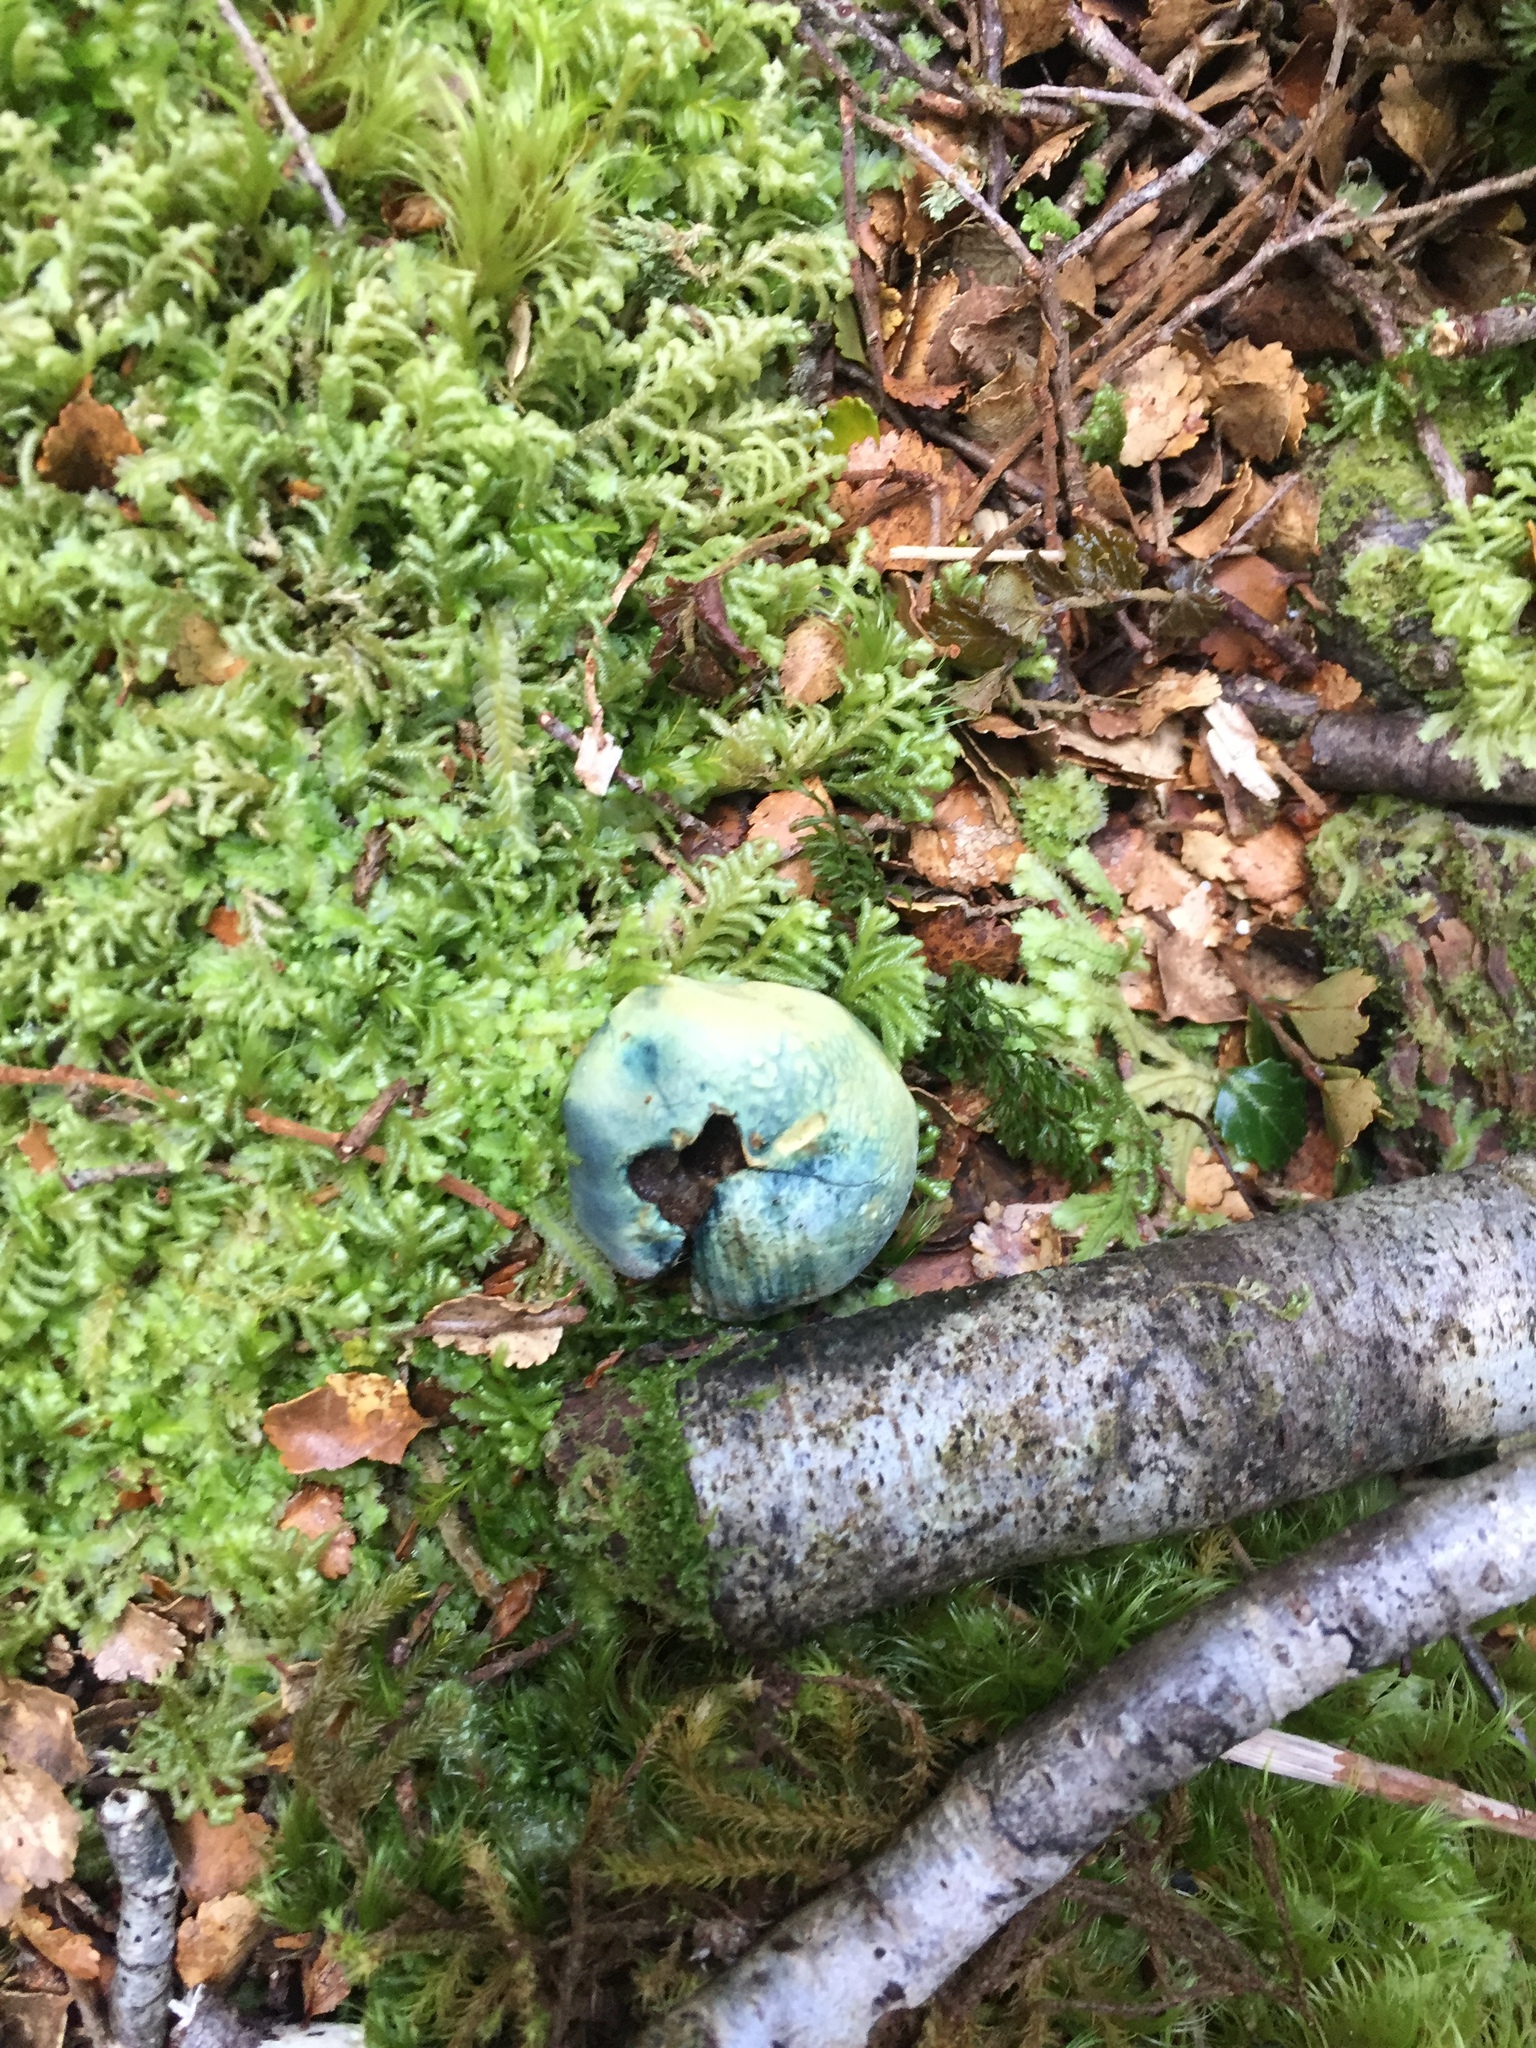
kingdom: Fungi
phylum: Basidiomycota
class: Agaricomycetes
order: Boletales
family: Boletaceae
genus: Leccinum
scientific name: Leccinum pachyderme
